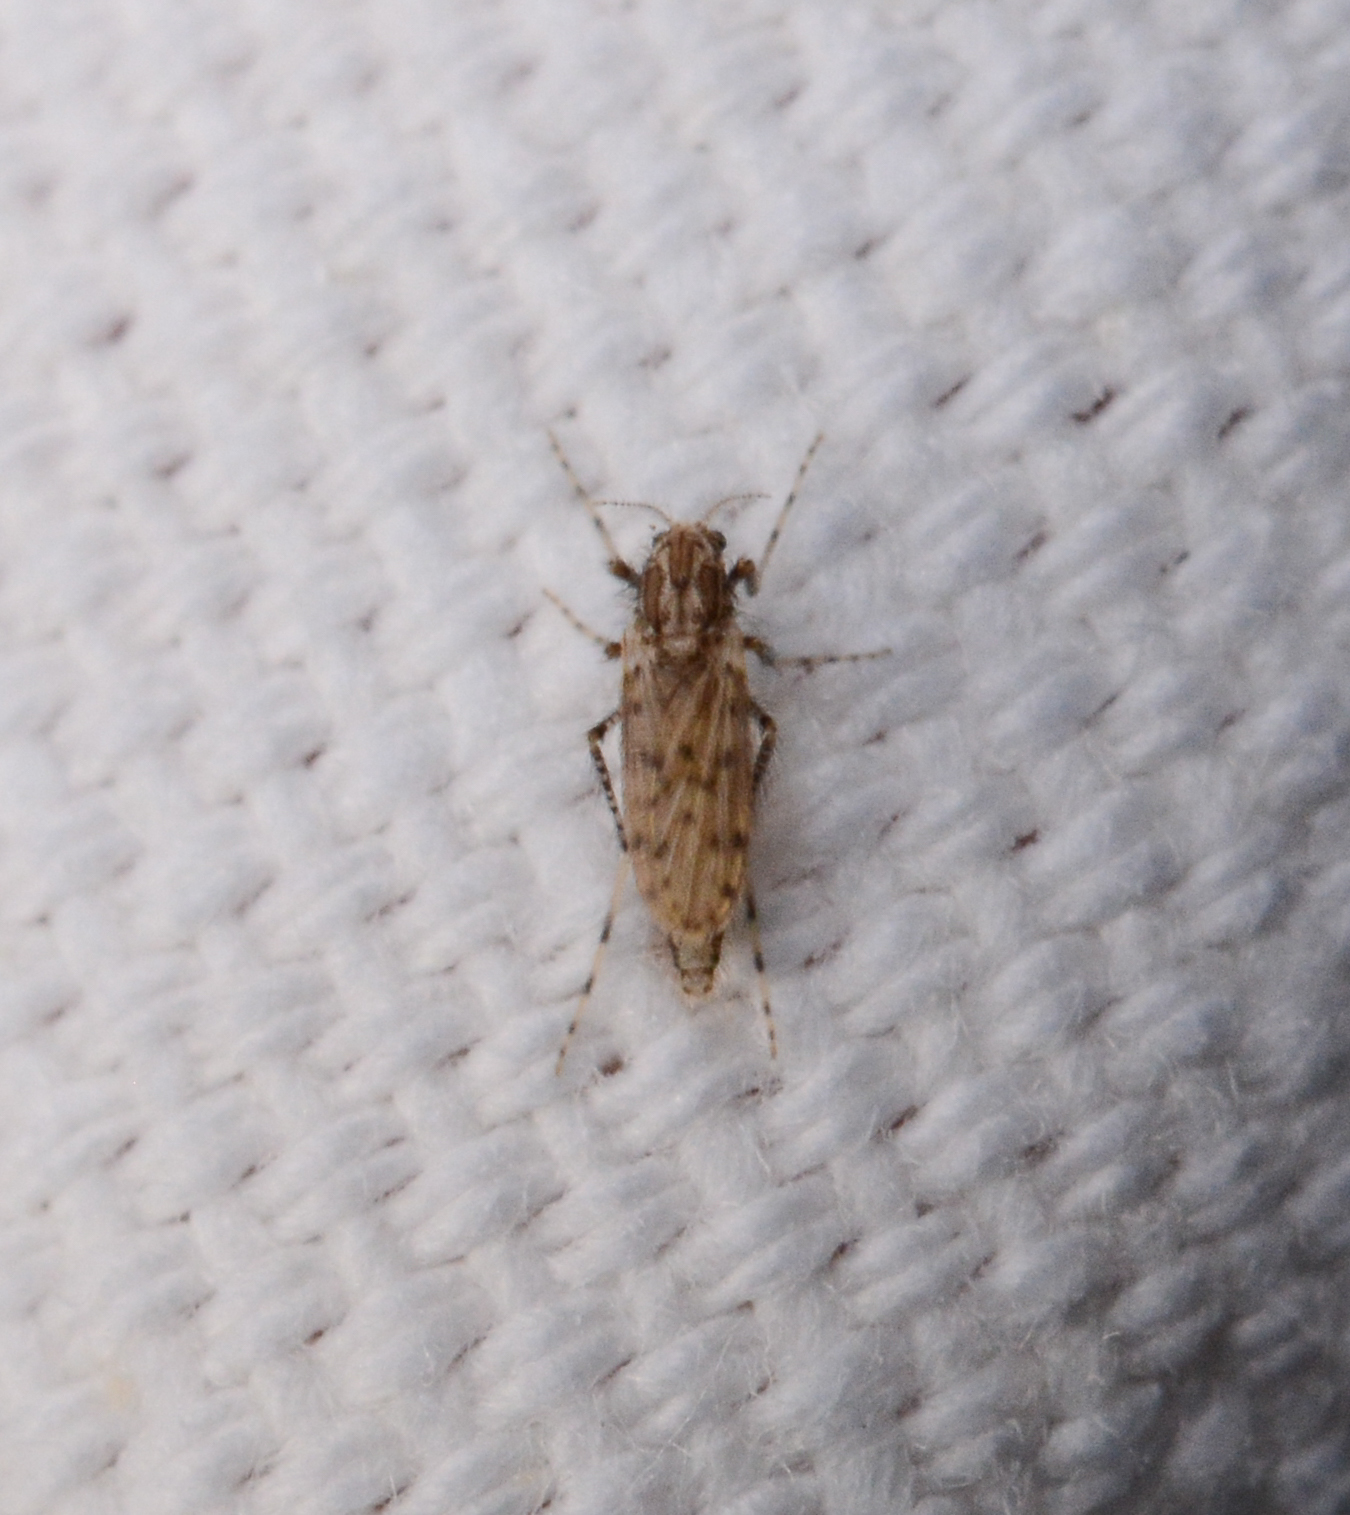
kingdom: Animalia
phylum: Arthropoda
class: Insecta
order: Diptera
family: Chaoboridae
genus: Chaoborus
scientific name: Chaoborus punctipennis
